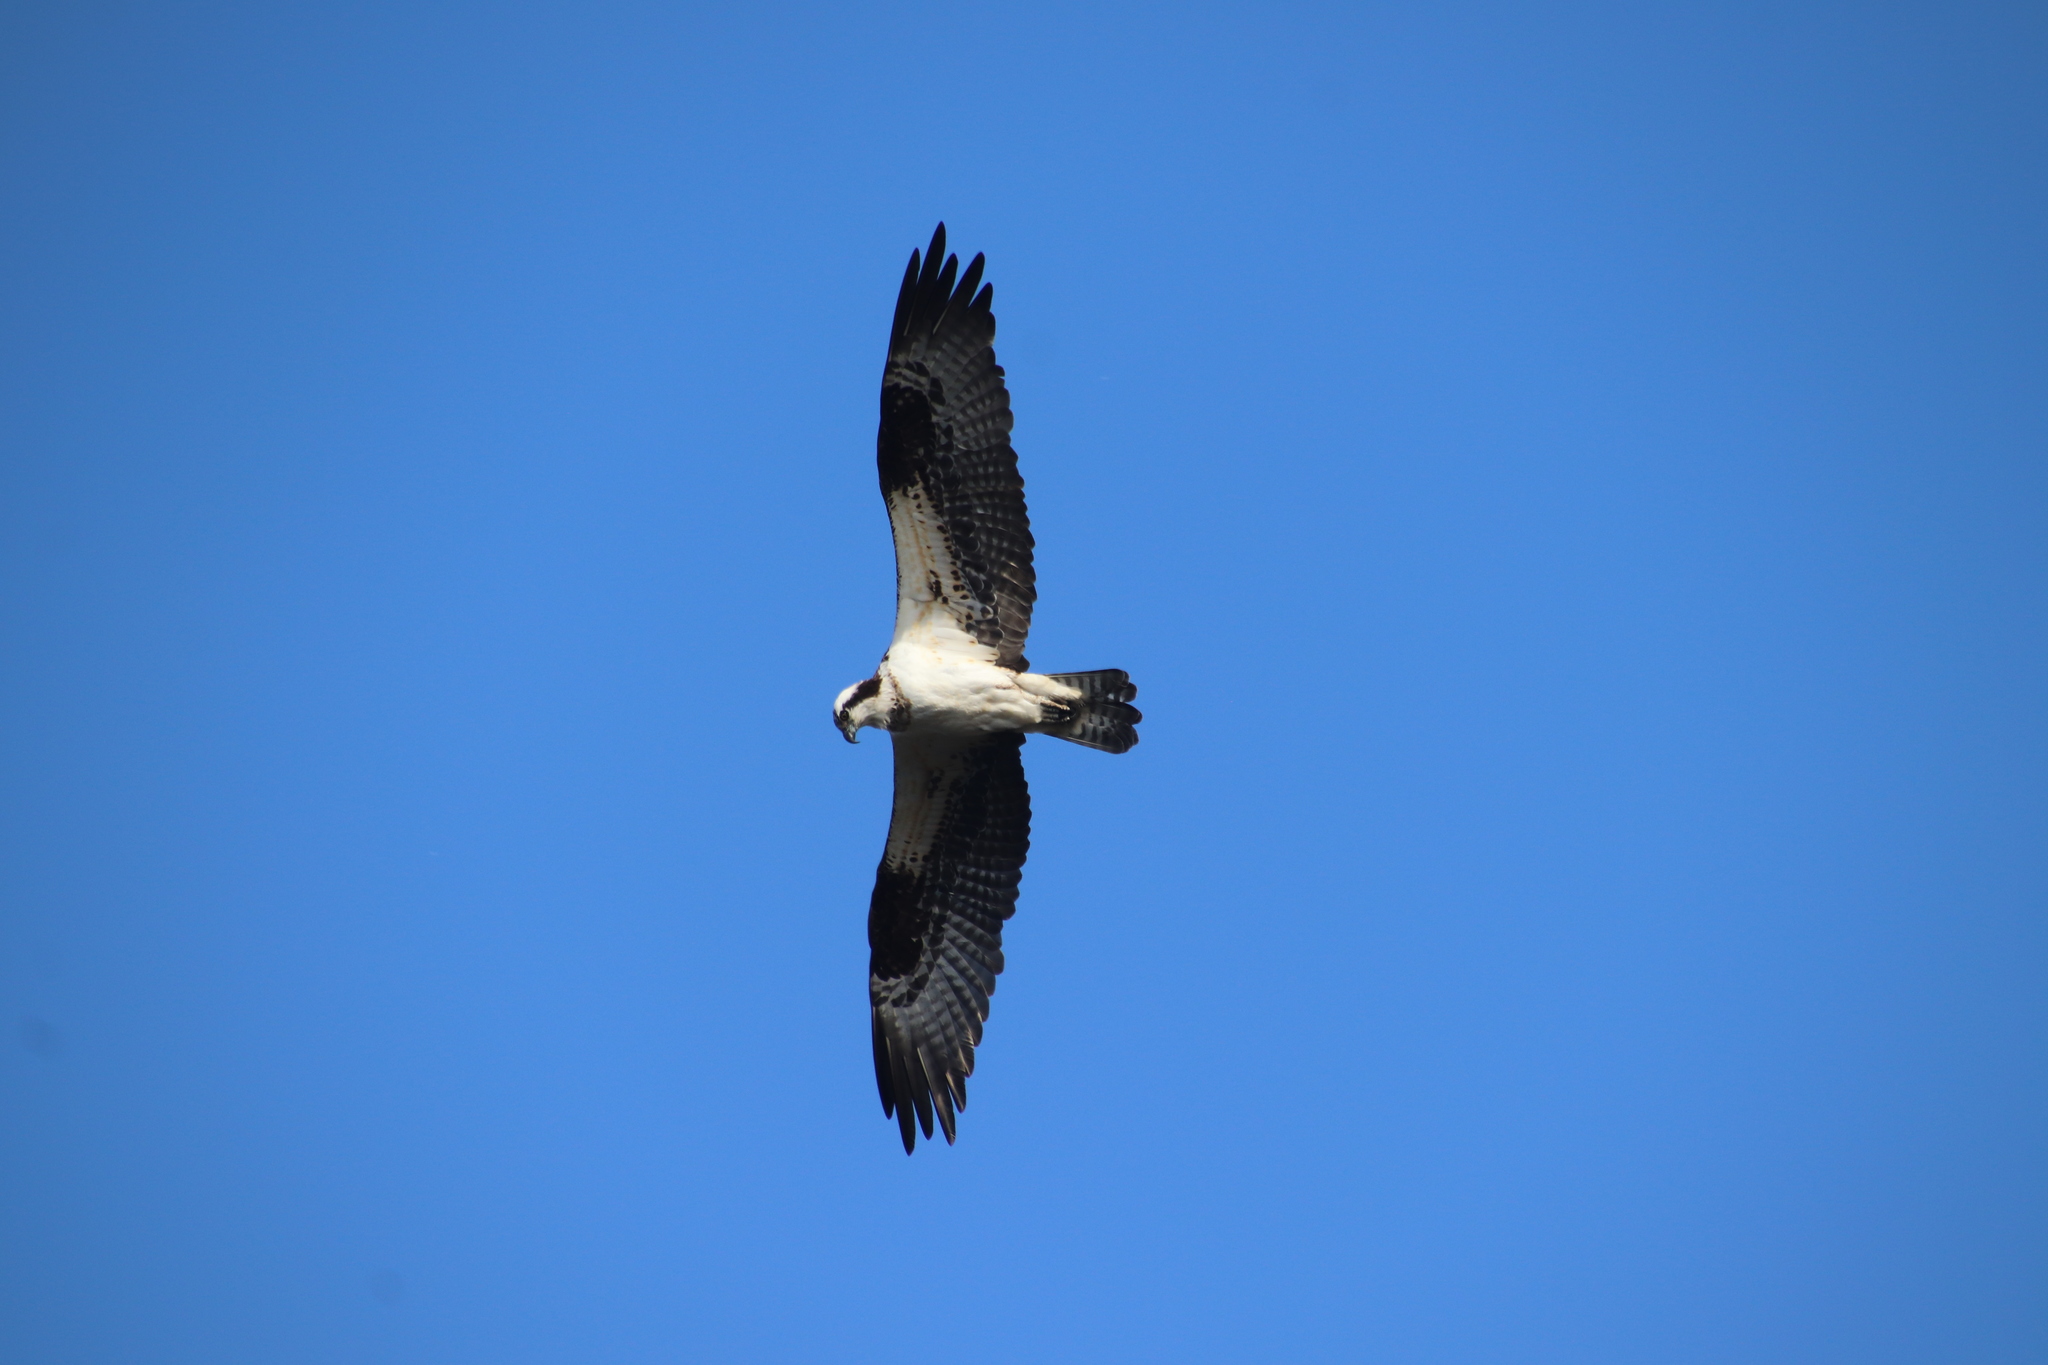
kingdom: Animalia
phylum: Chordata
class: Aves
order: Accipitriformes
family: Pandionidae
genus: Pandion
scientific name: Pandion haliaetus
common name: Osprey
